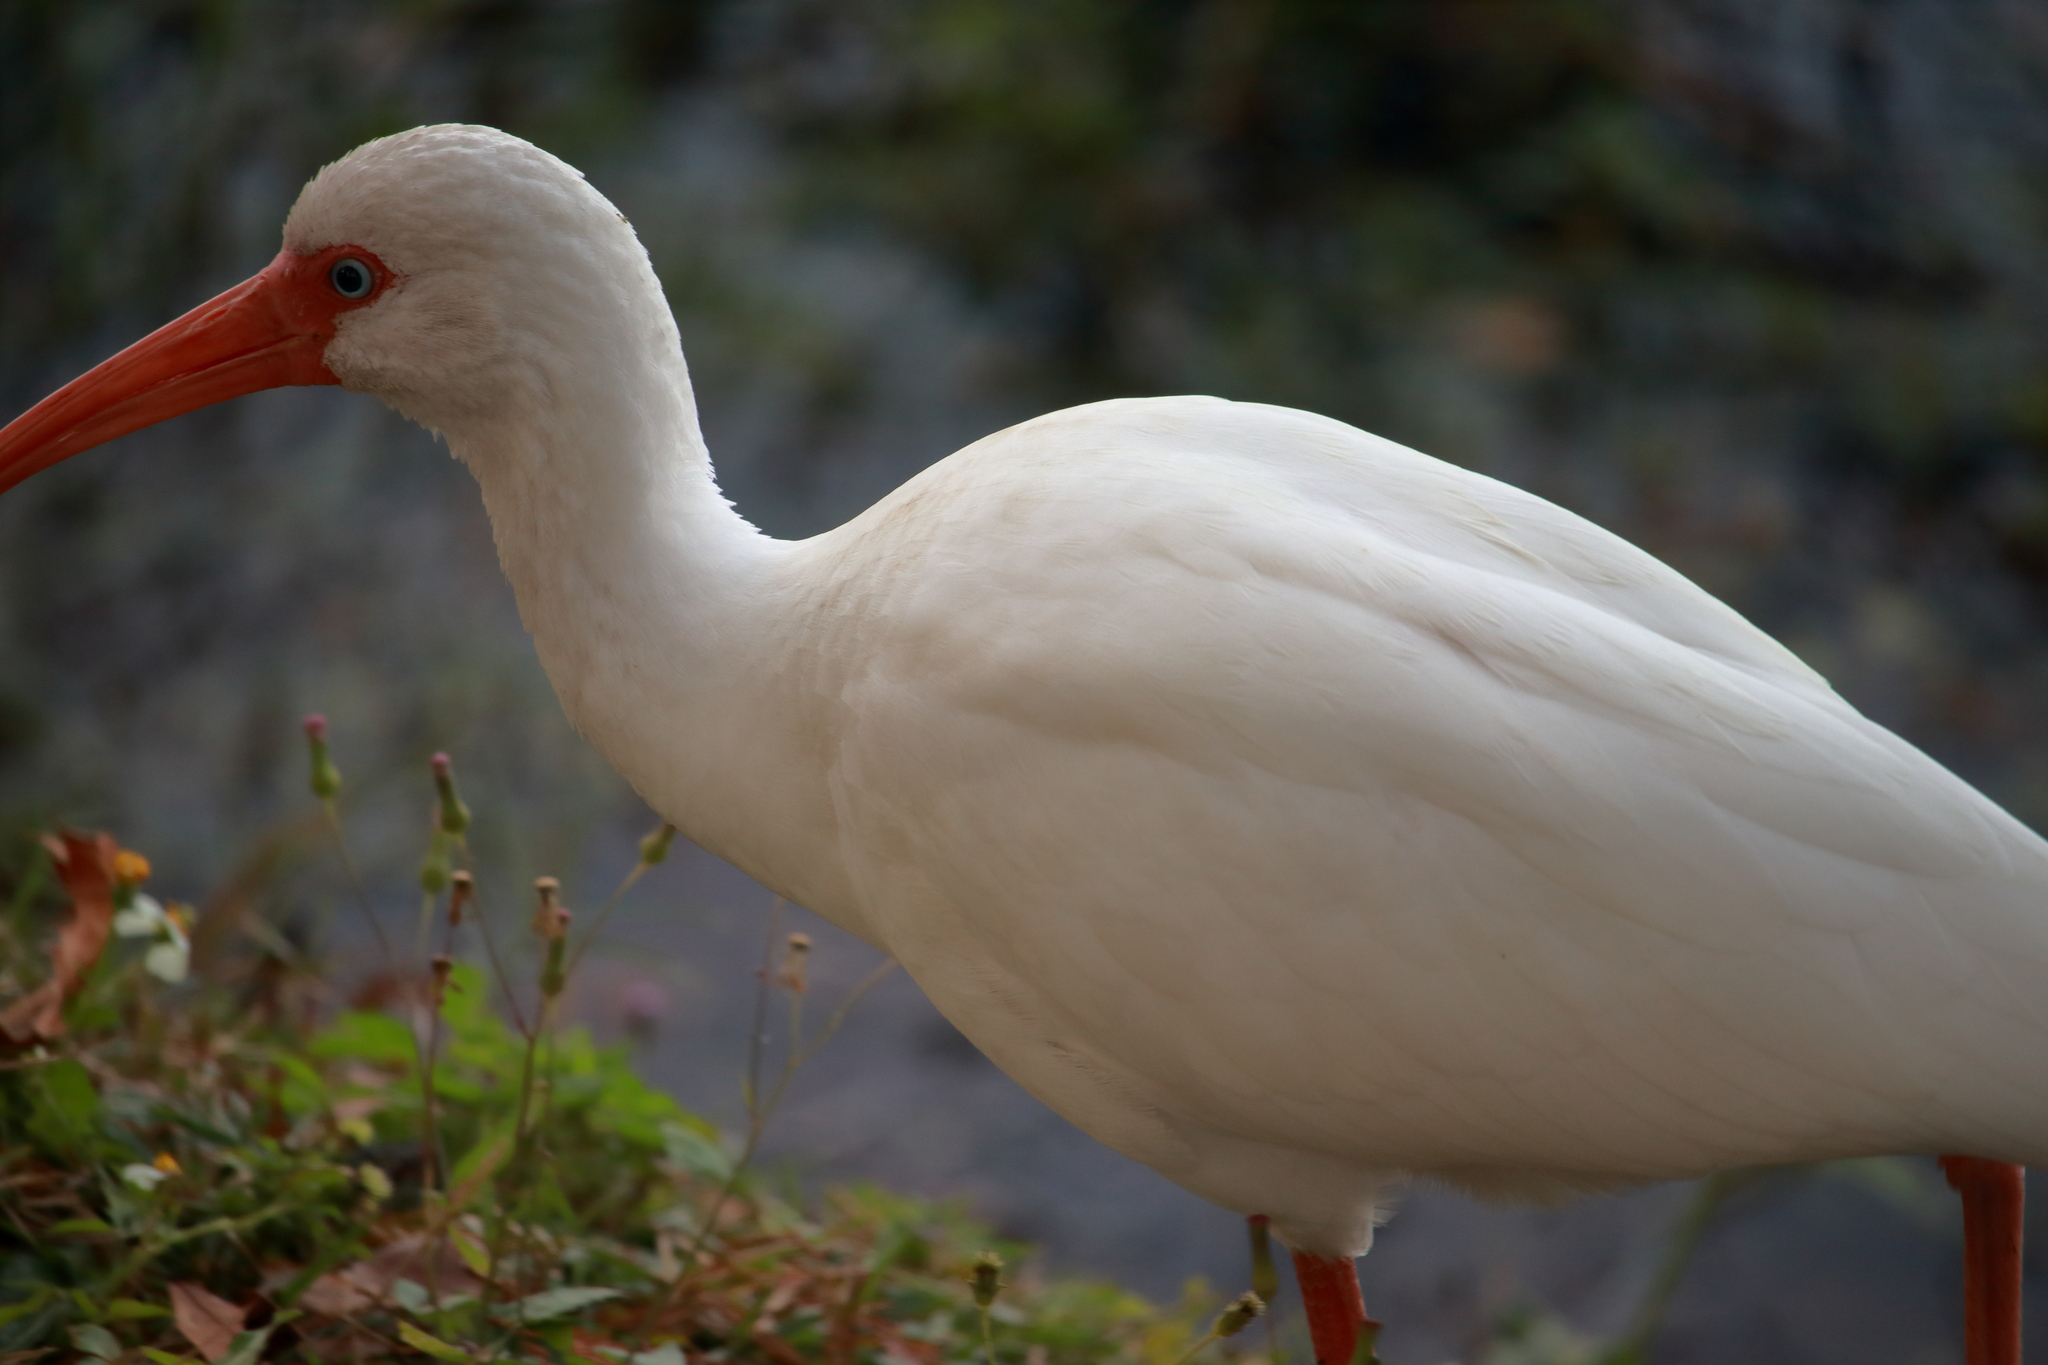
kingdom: Animalia
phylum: Chordata
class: Aves
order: Pelecaniformes
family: Threskiornithidae
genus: Eudocimus
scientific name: Eudocimus albus
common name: White ibis
